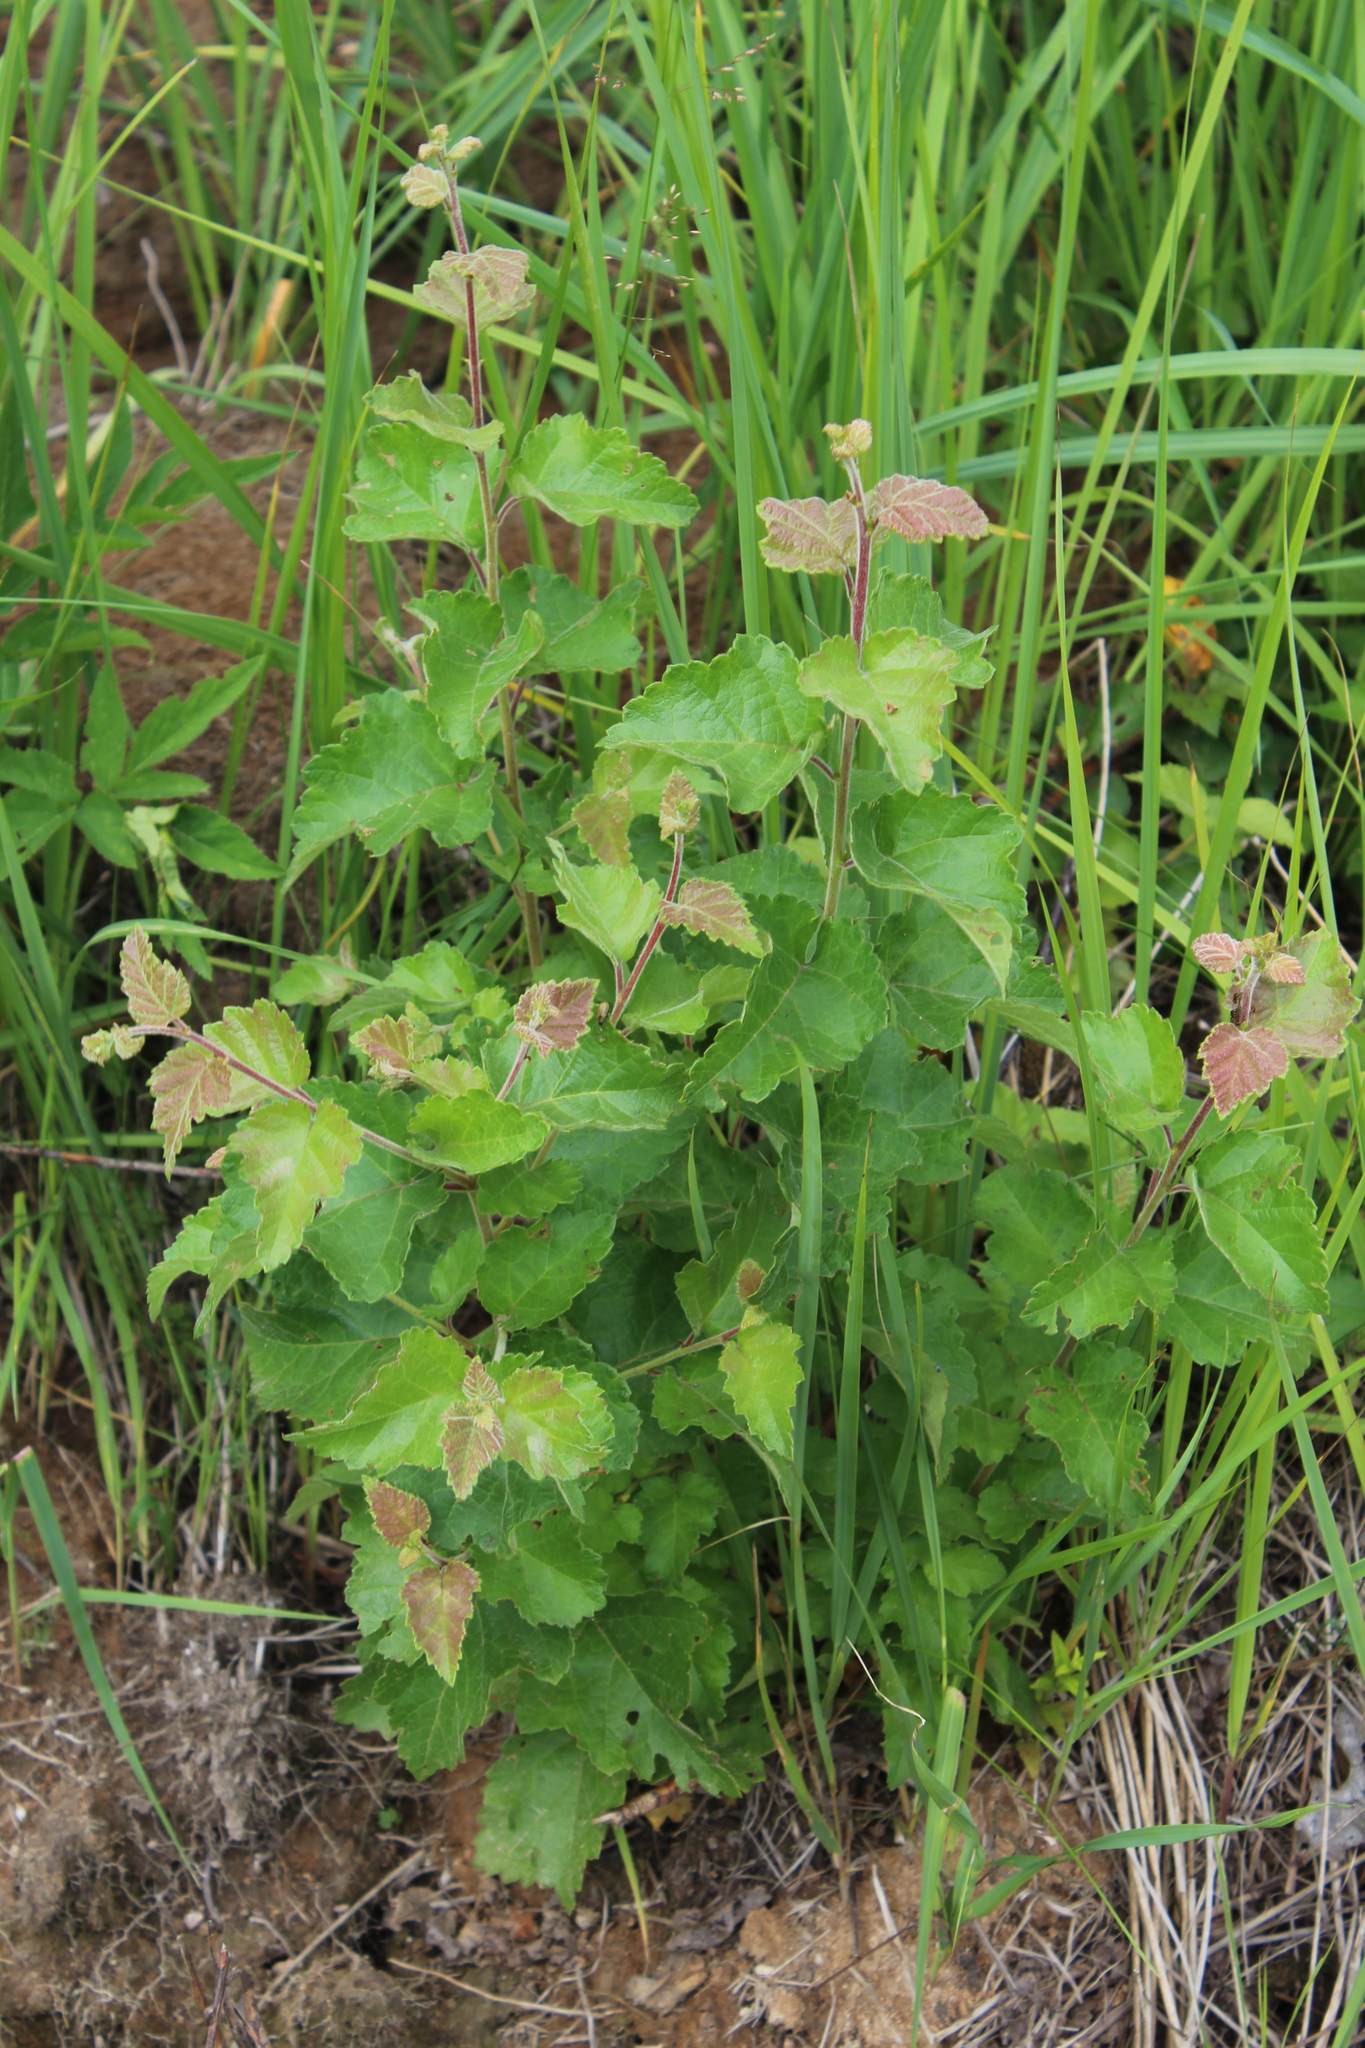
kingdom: Plantae
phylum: Tracheophyta
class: Magnoliopsida
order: Fagales
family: Betulaceae
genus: Betula
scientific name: Betula pubescens
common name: Downy birch
